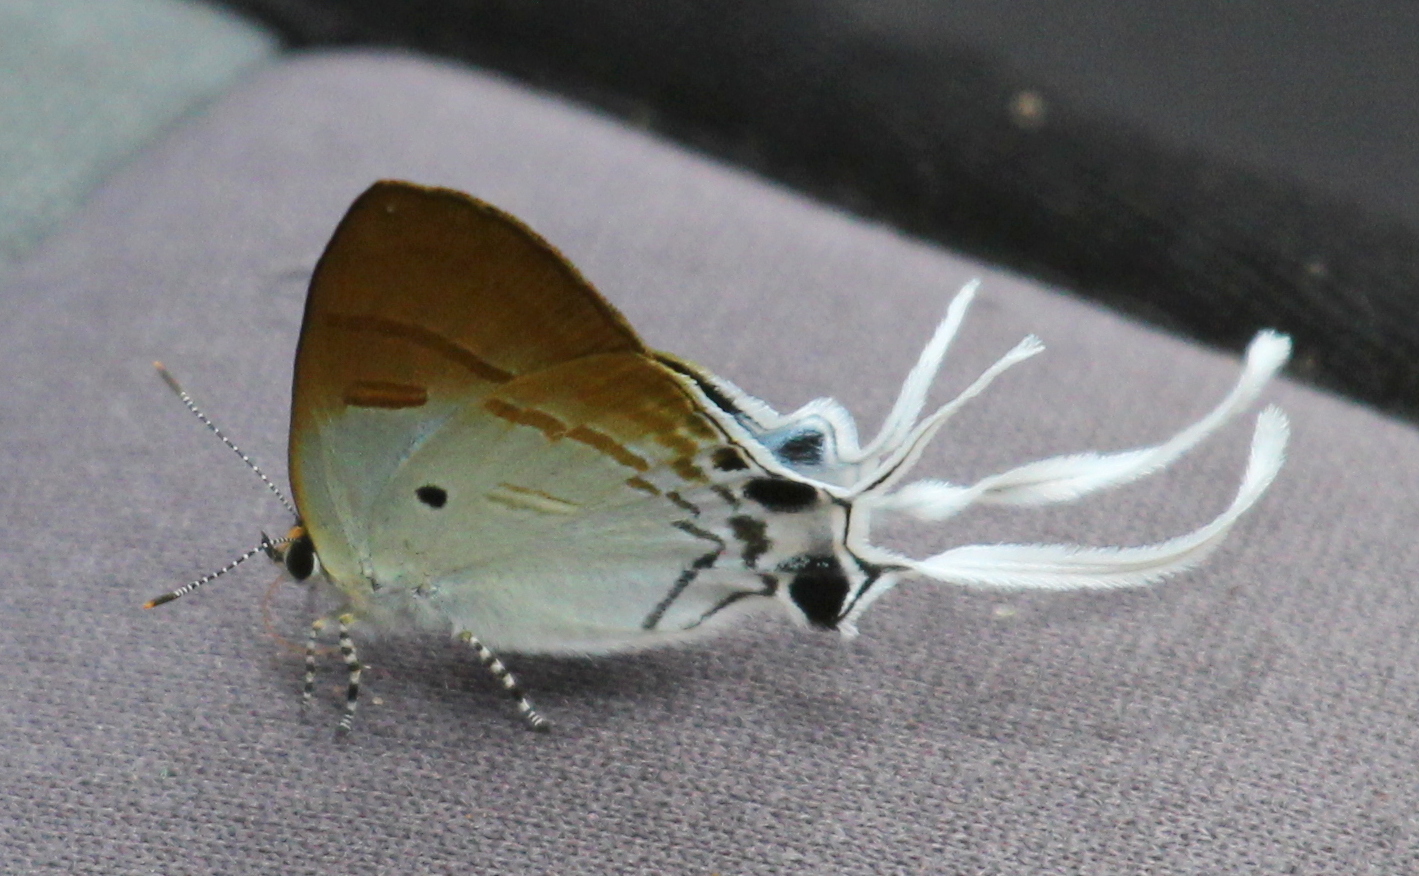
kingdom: Animalia
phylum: Arthropoda
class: Insecta
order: Lepidoptera
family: Lycaenidae
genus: Zeltus
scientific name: Zeltus amasa
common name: Fluffy tit
